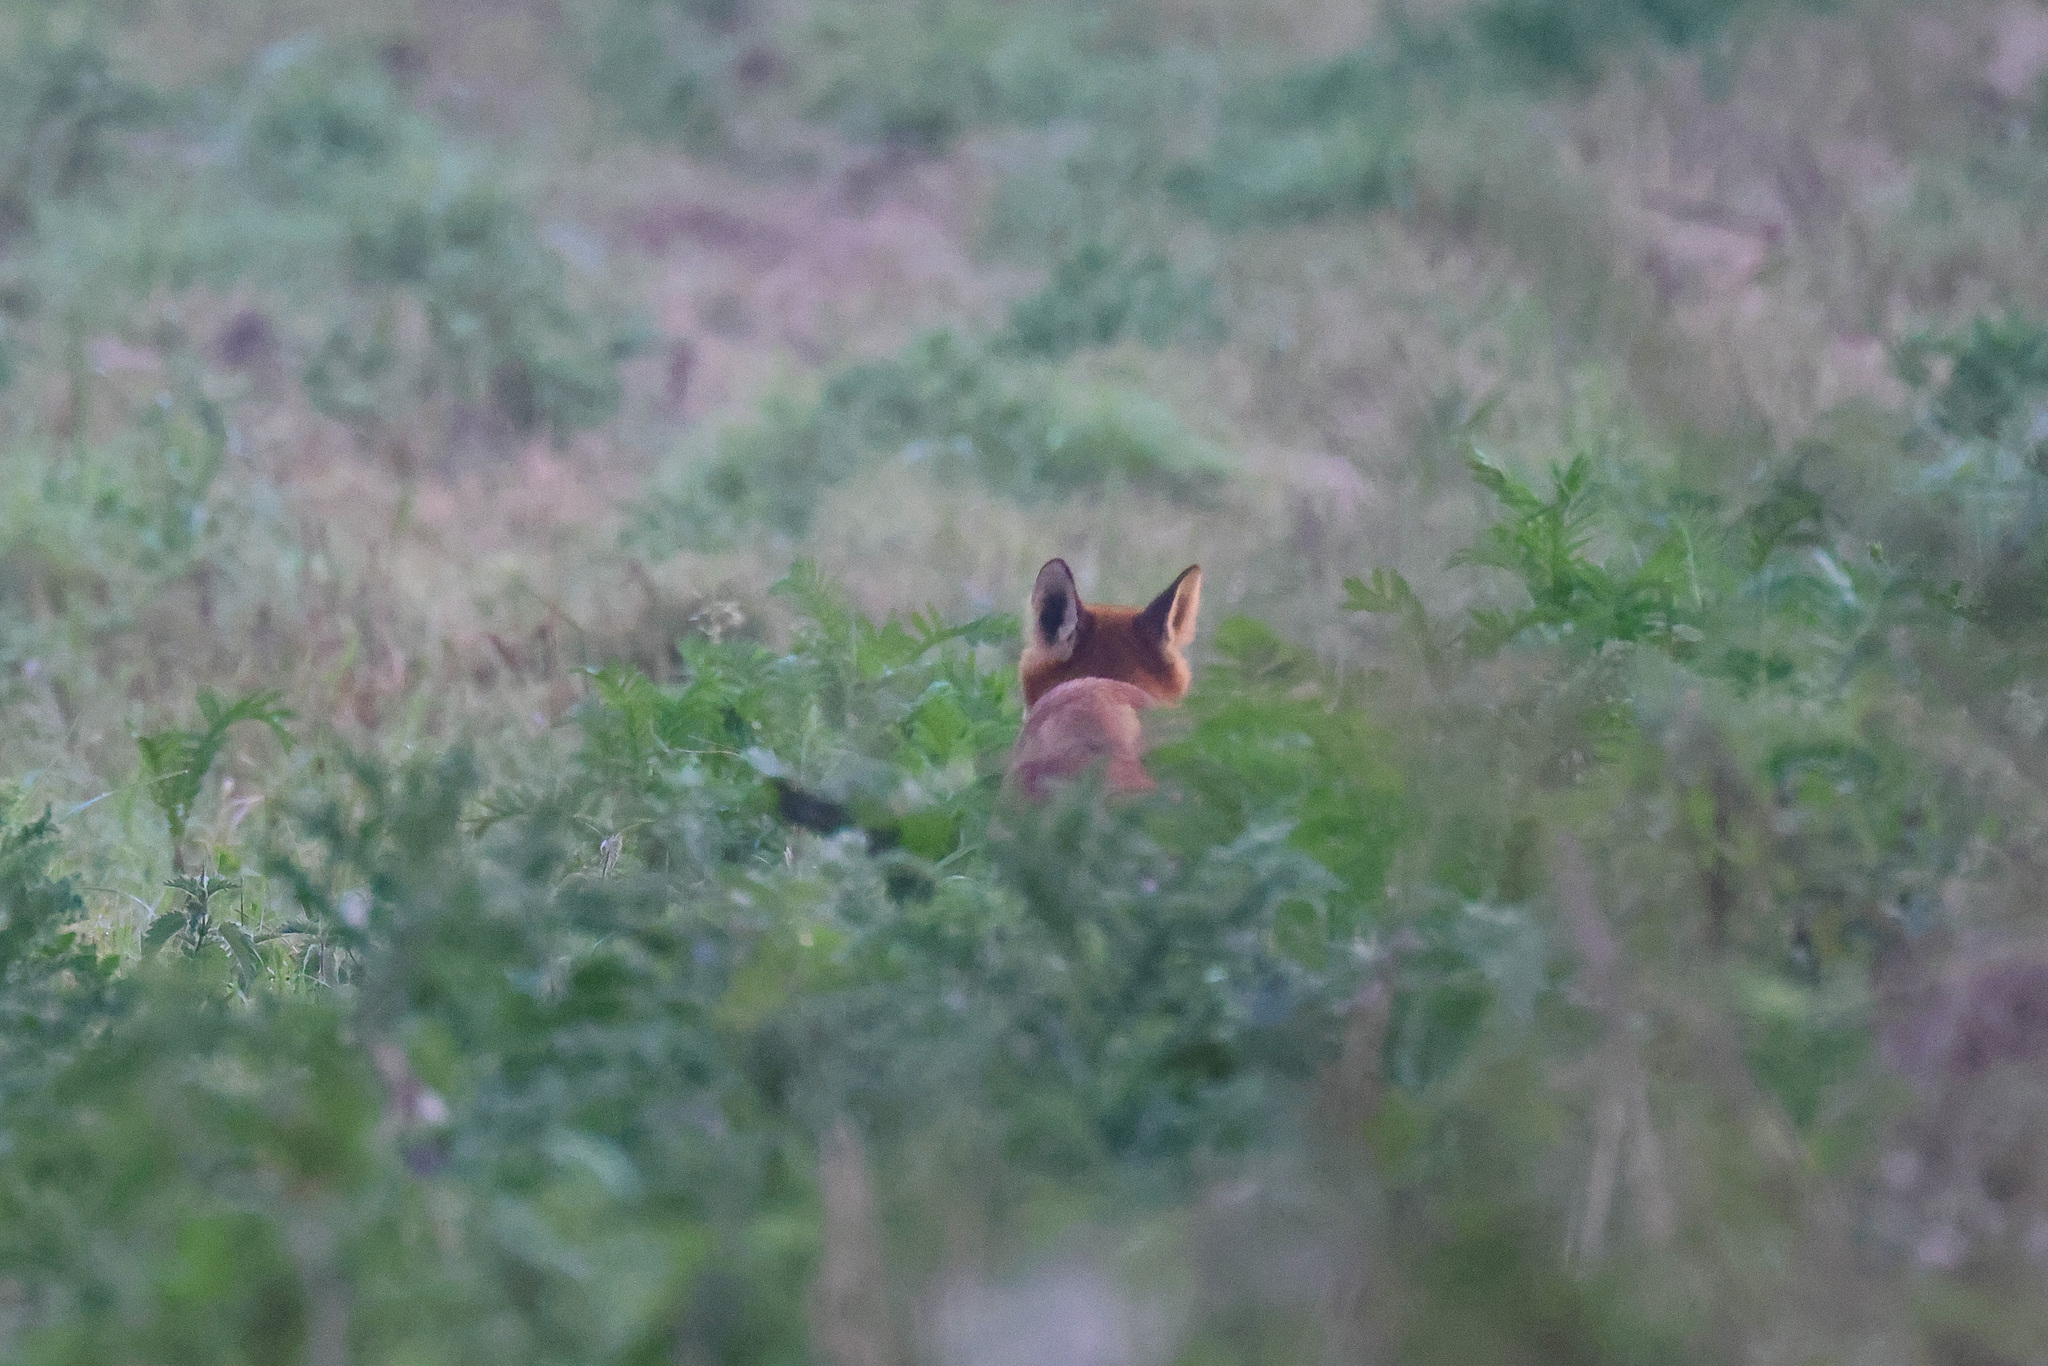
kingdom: Animalia
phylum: Chordata
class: Mammalia
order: Carnivora
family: Canidae
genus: Vulpes
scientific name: Vulpes vulpes
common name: Red fox
